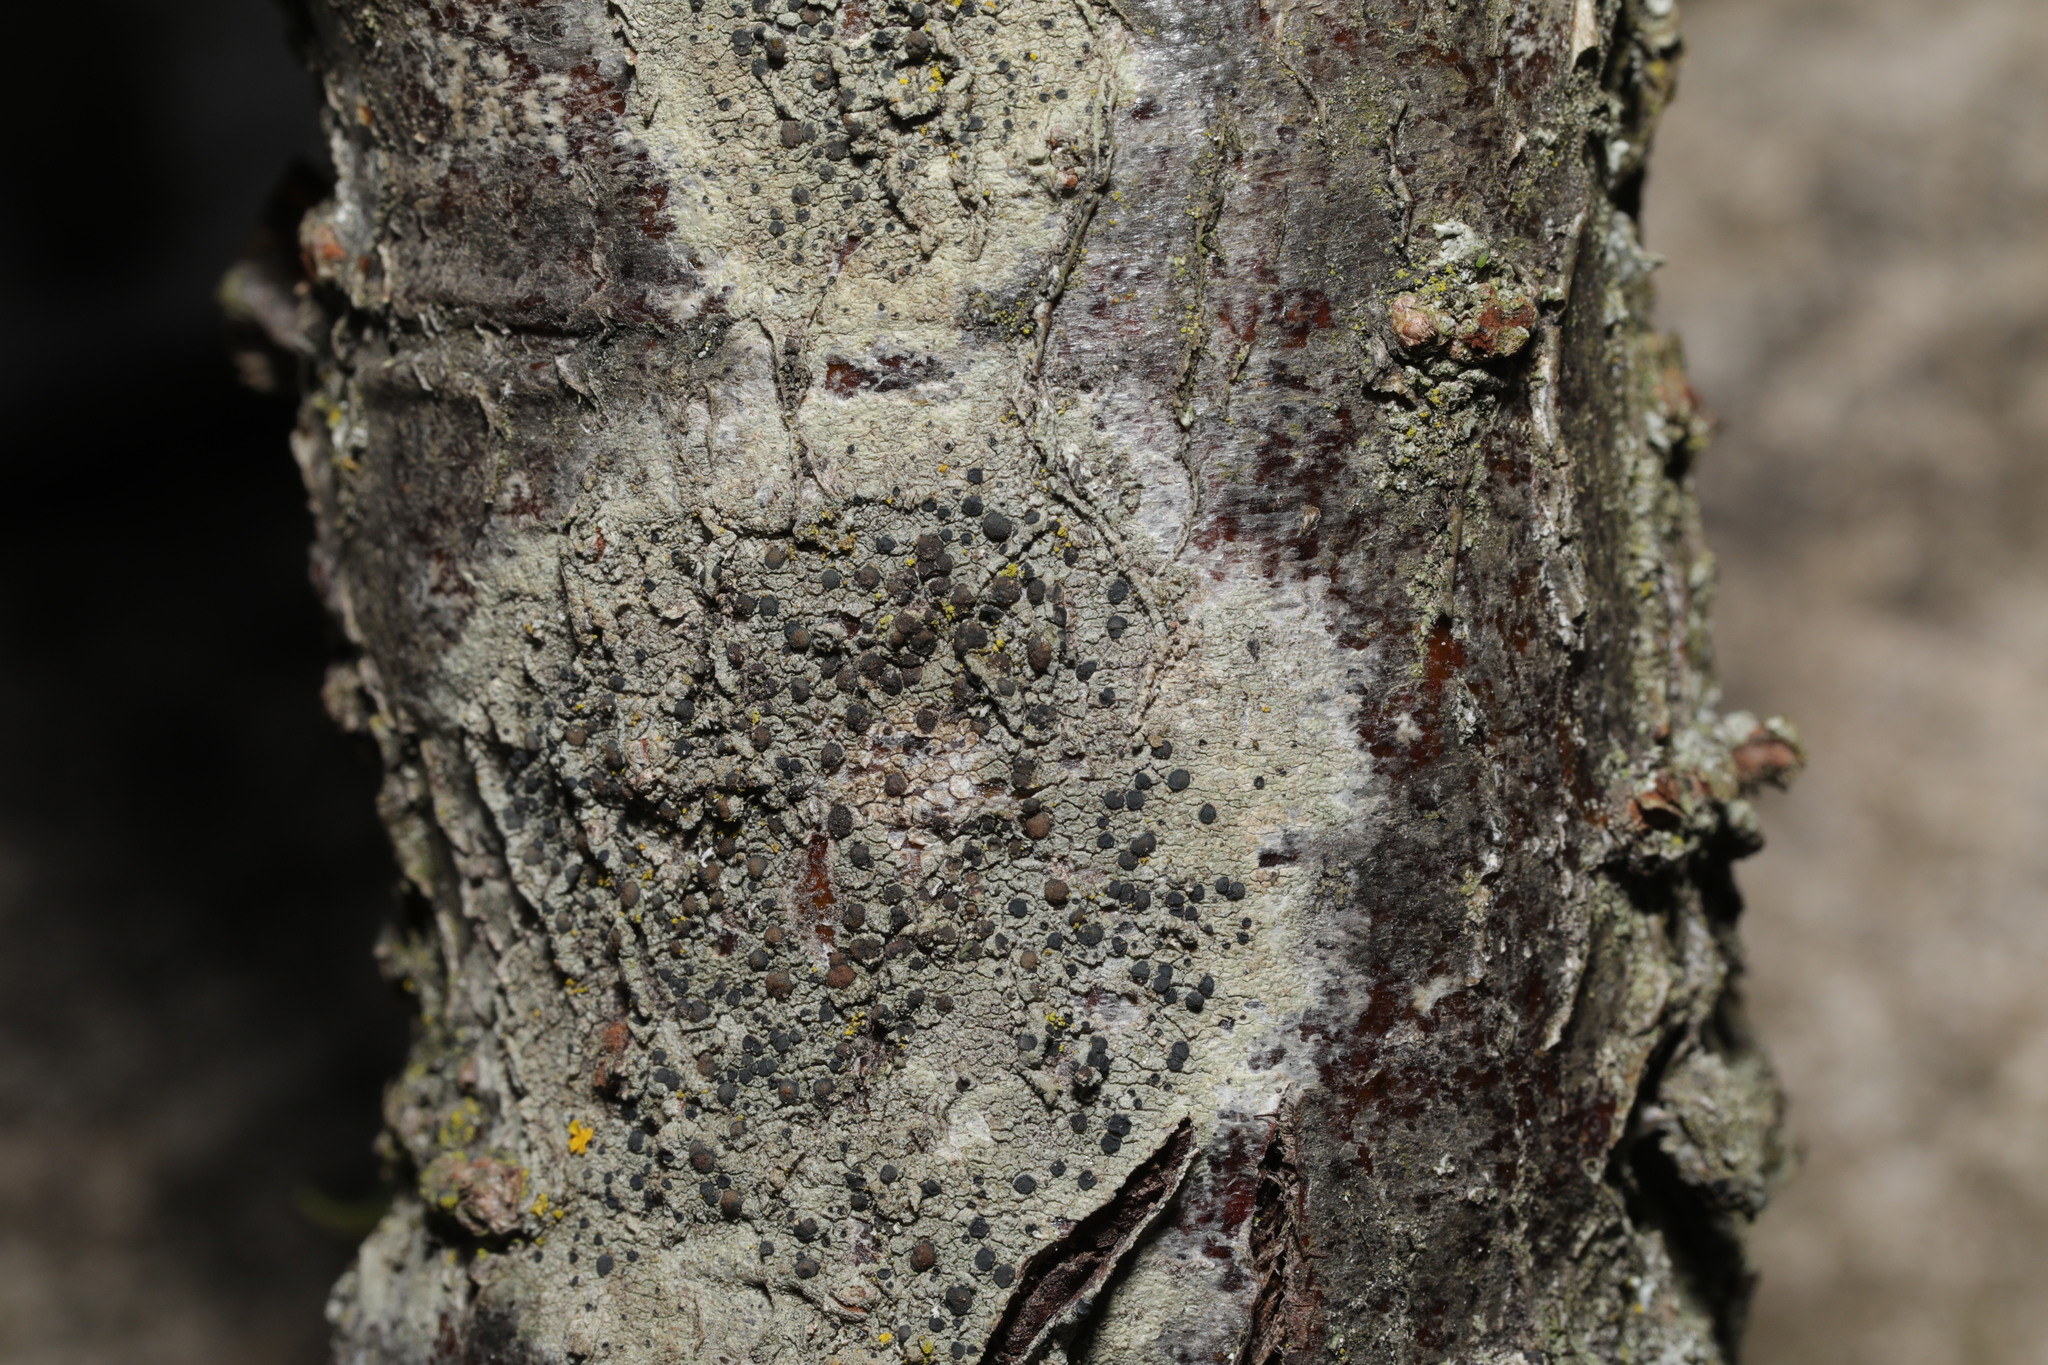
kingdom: Fungi
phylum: Ascomycota
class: Lecanoromycetes
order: Lecanorales
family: Lecanoraceae
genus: Lecidella
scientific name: Lecidella elaeochroma
